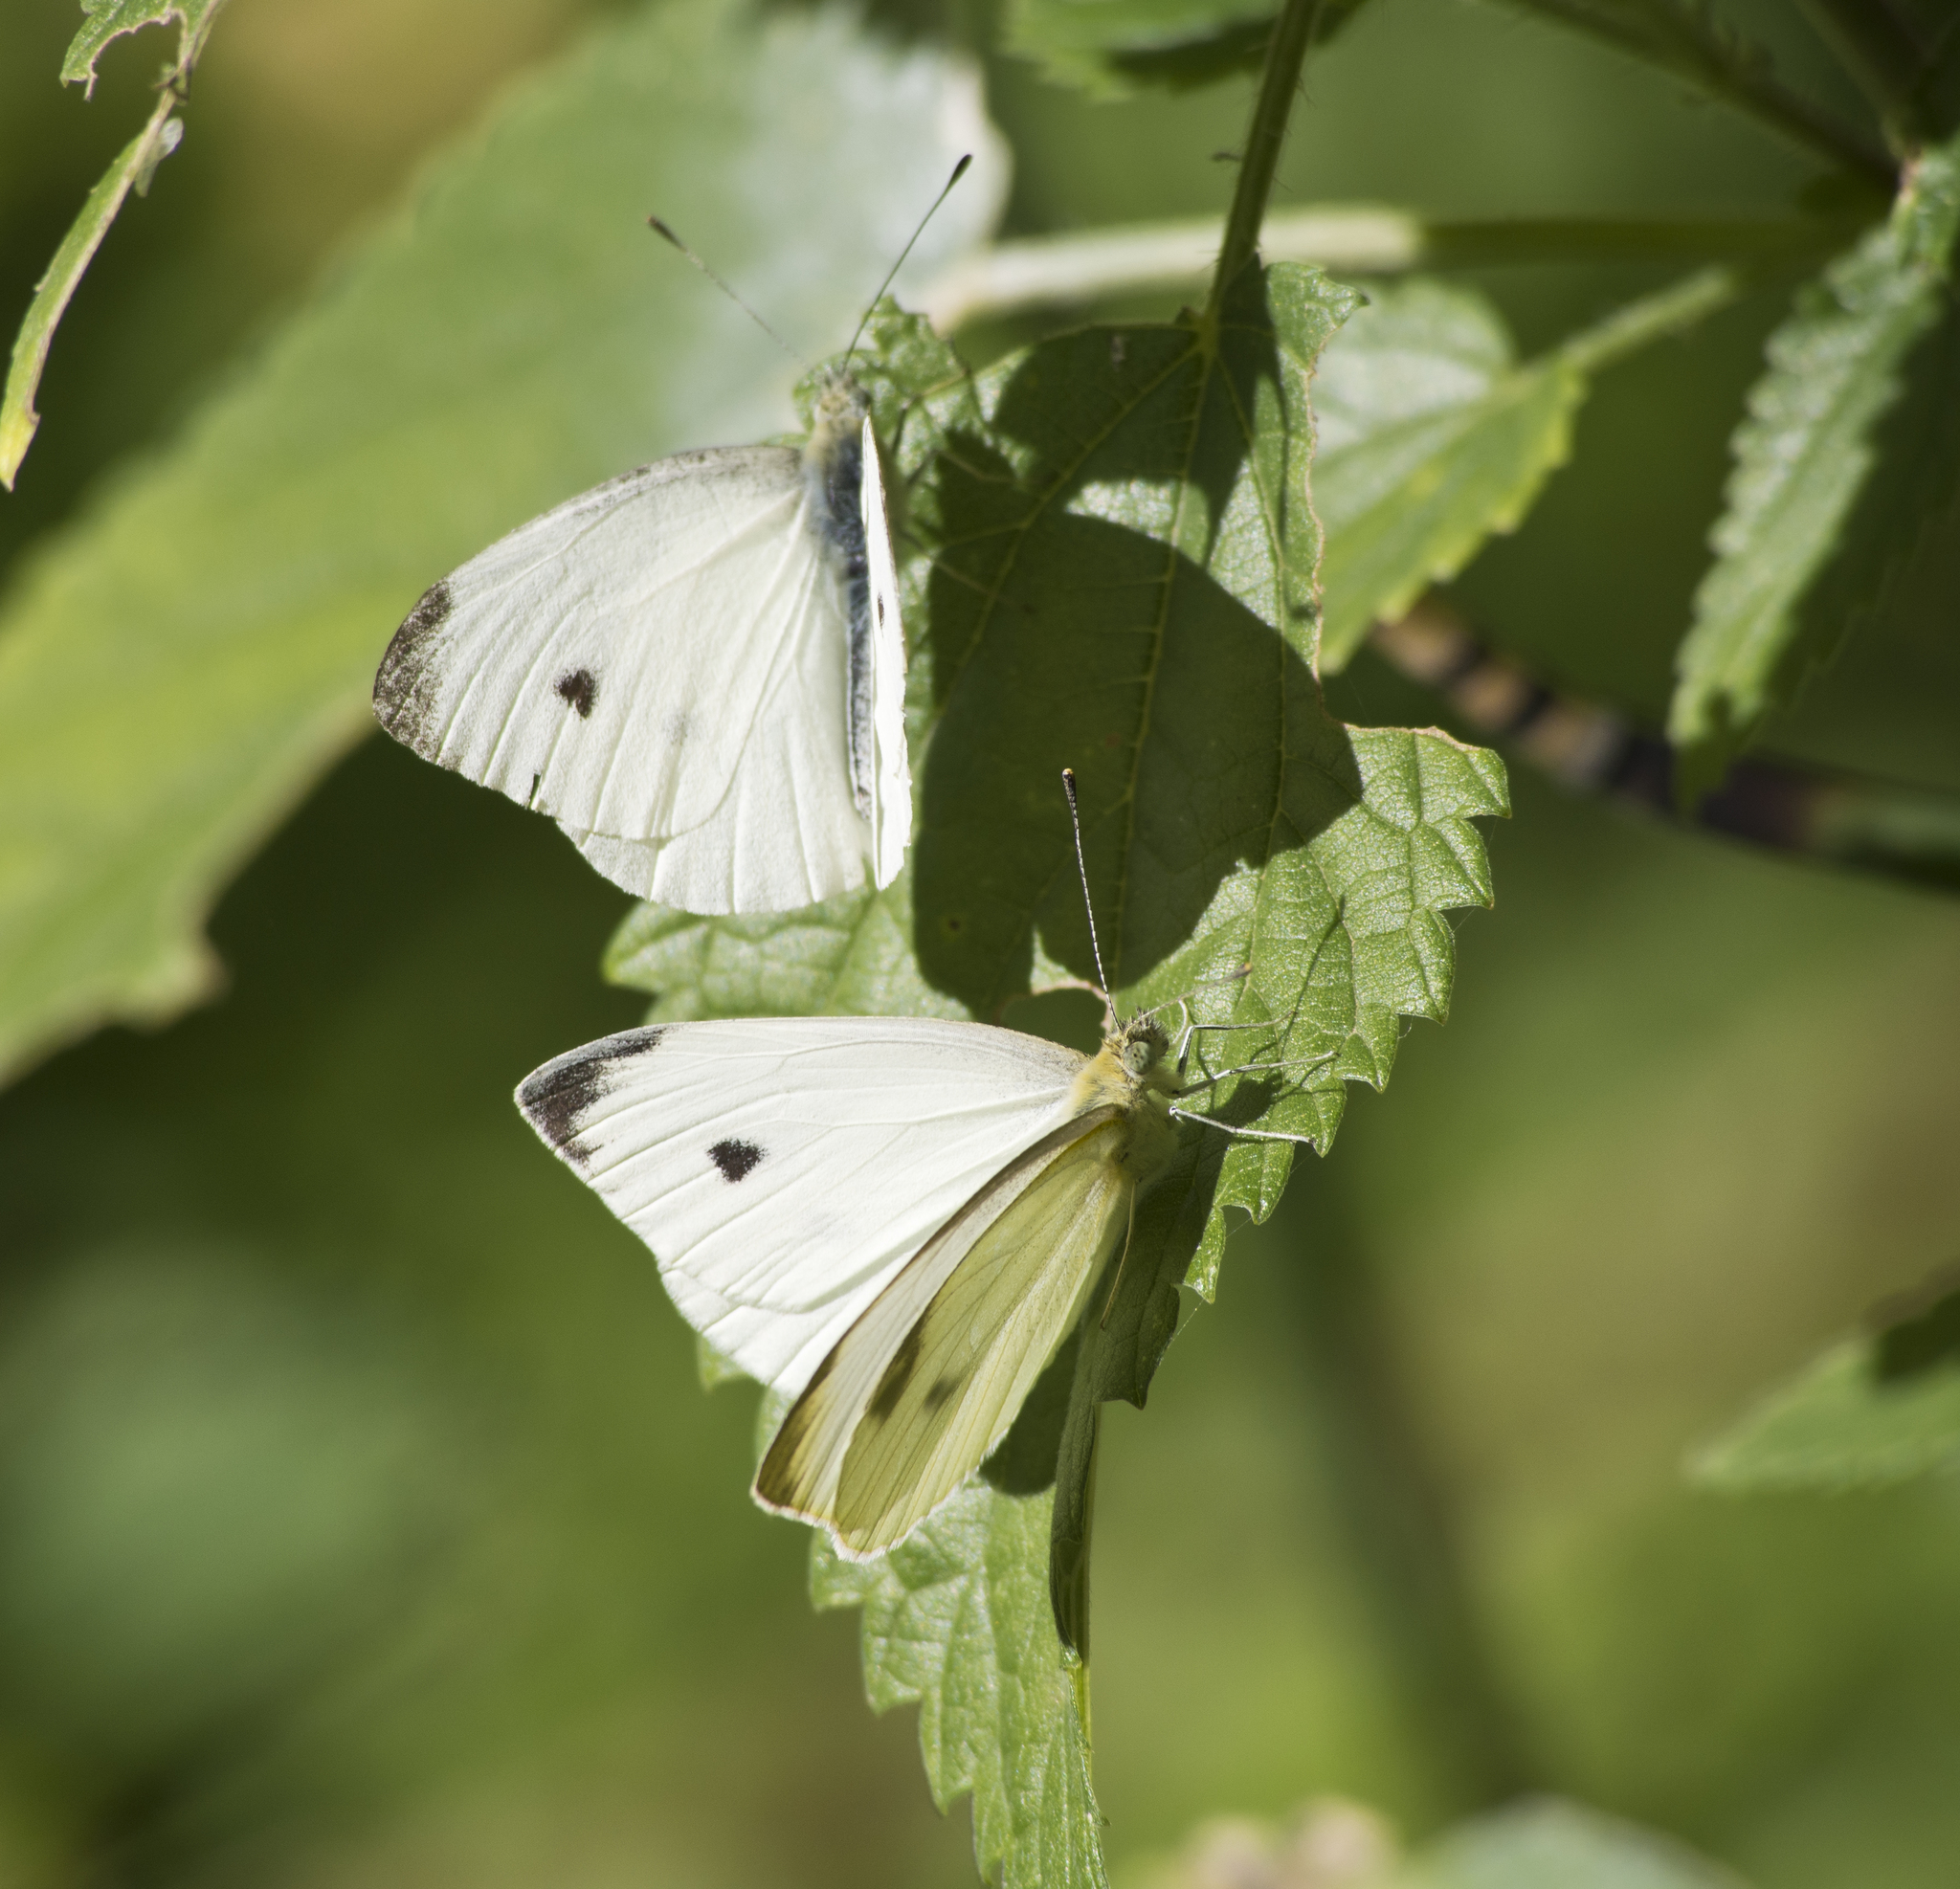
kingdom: Animalia
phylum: Arthropoda
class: Insecta
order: Lepidoptera
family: Pieridae
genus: Pieris
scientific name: Pieris rapae
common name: Small white
